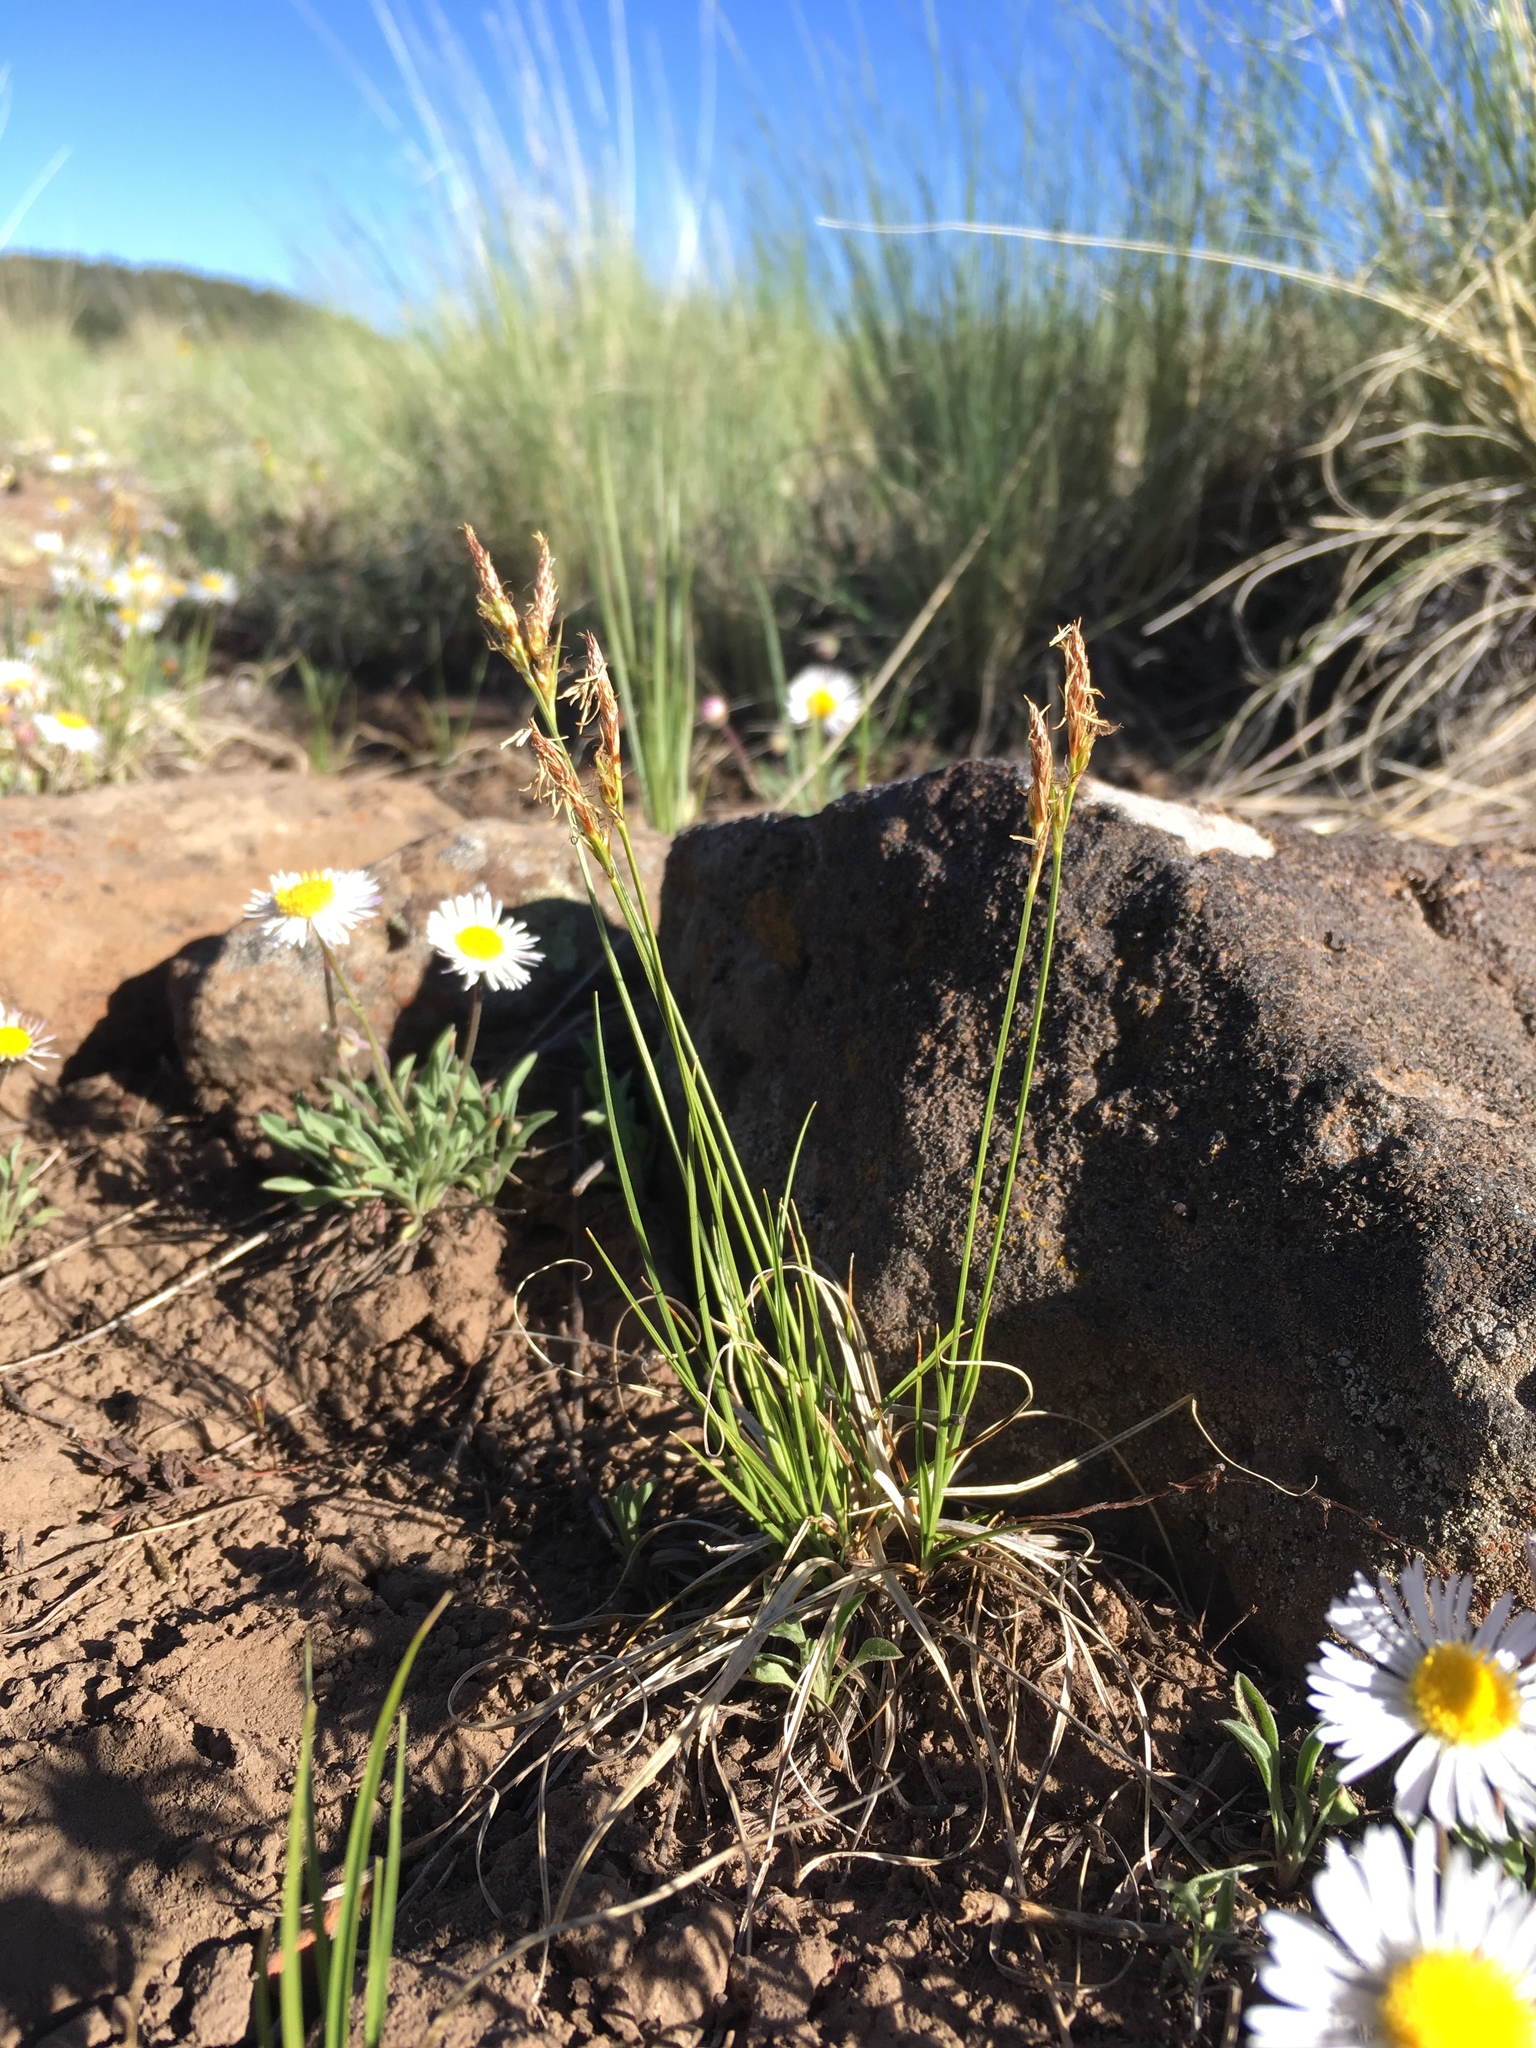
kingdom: Plantae
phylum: Tracheophyta
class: Liliopsida
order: Poales
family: Cyperaceae
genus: Carex
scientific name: Carex inops
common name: Long-stolon sedge
